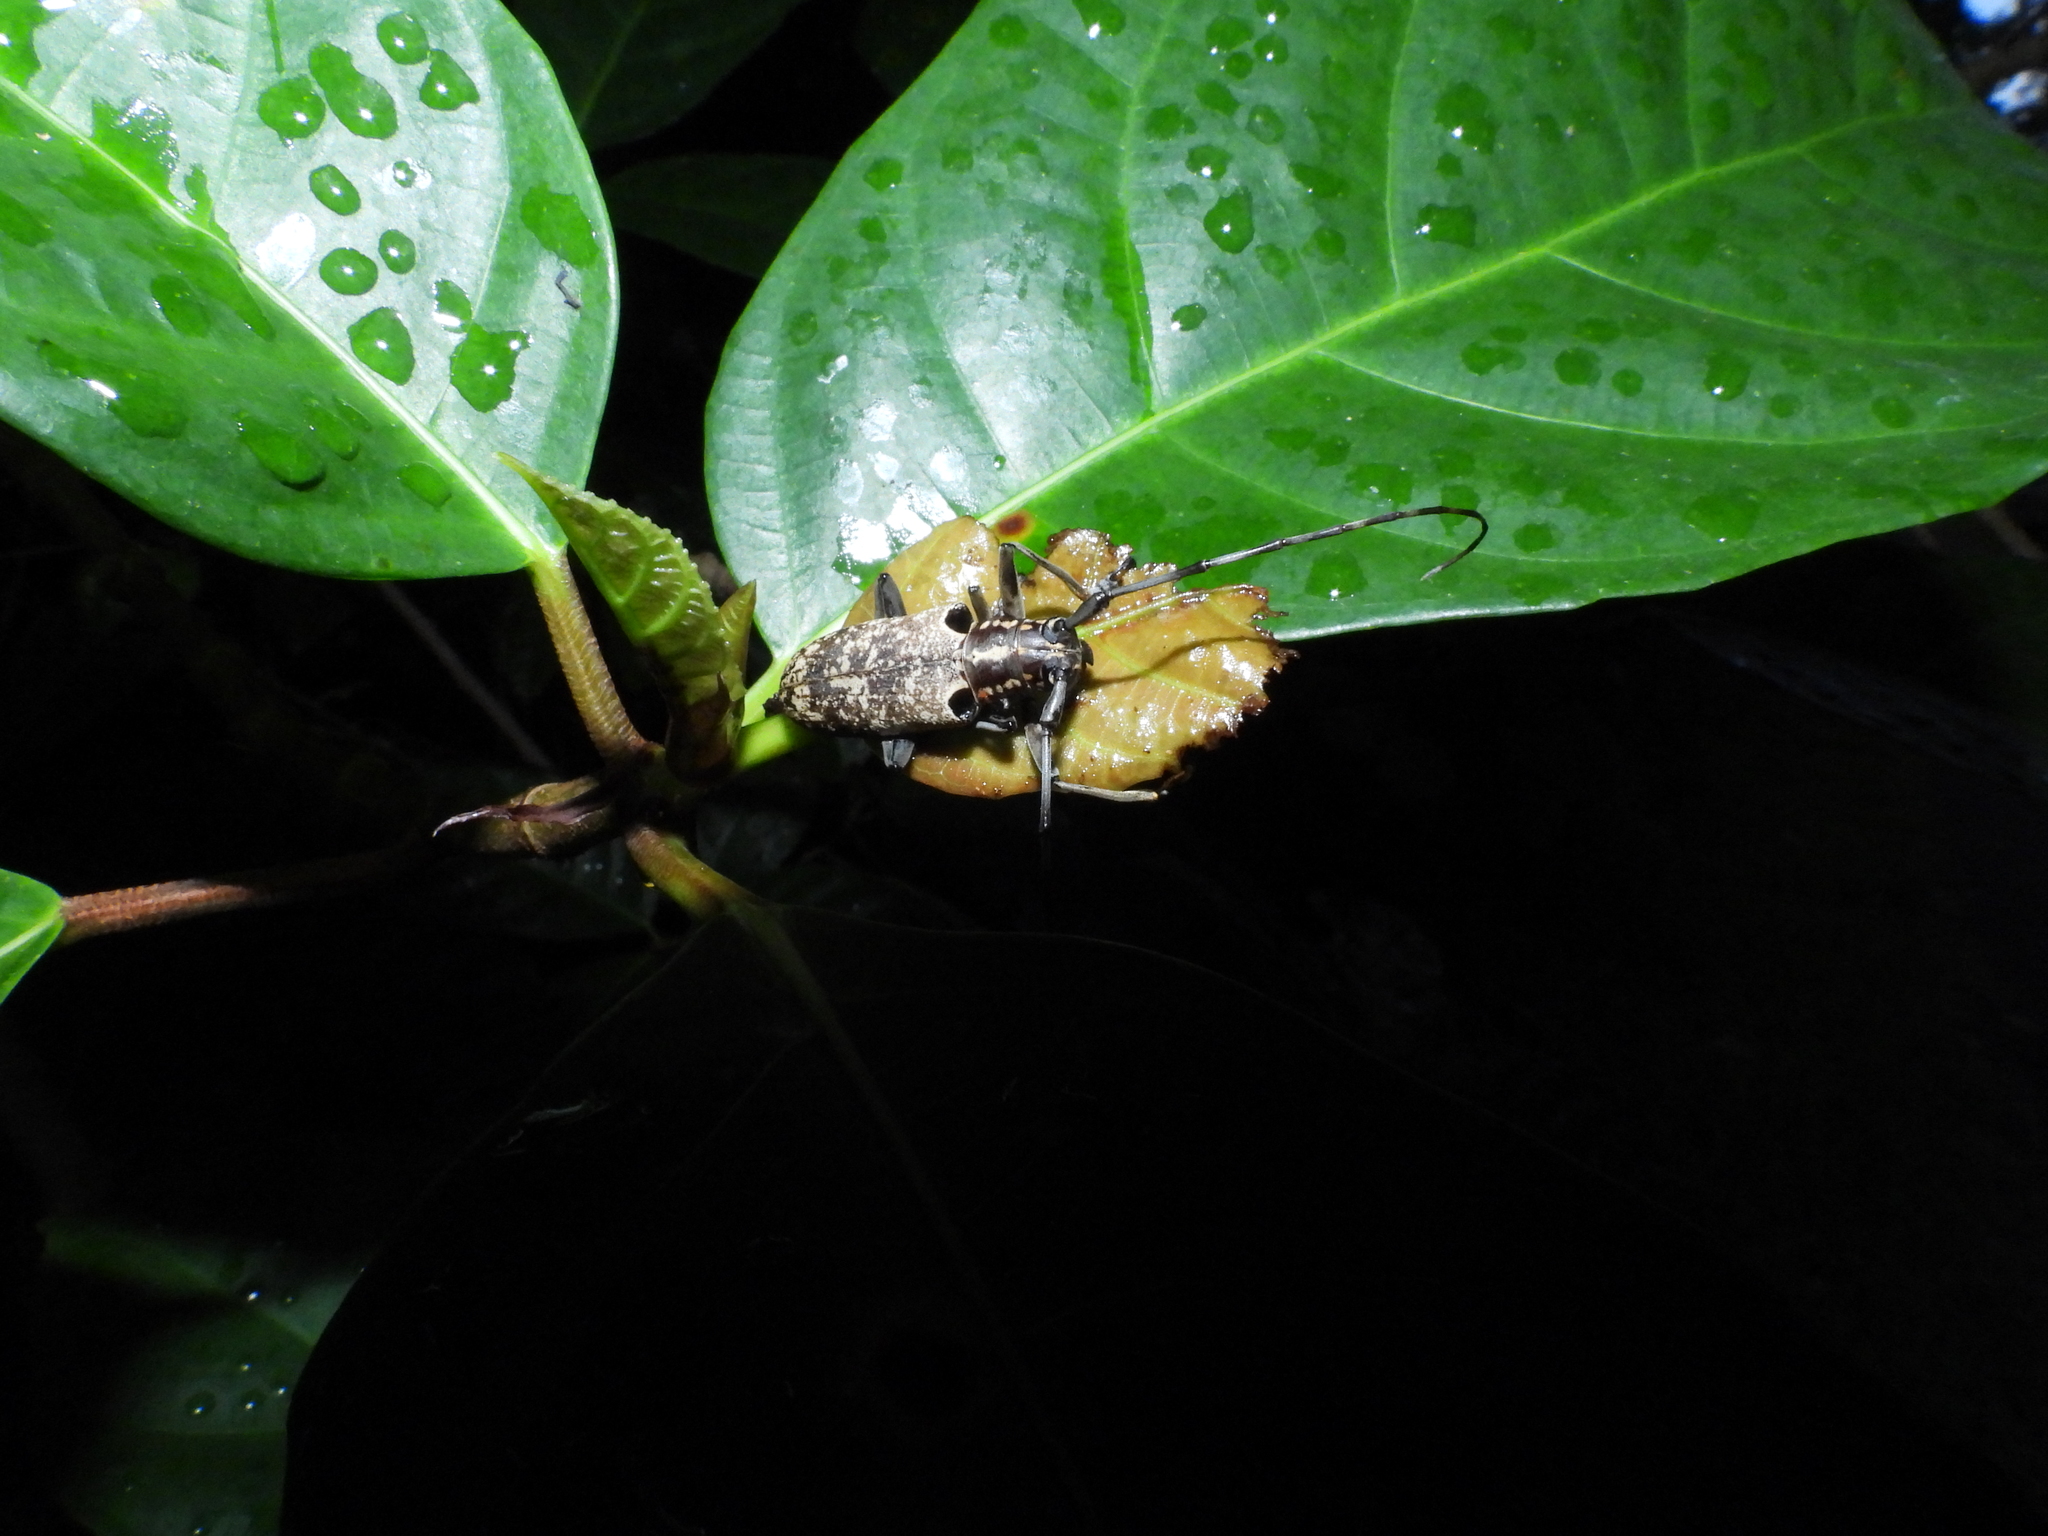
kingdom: Animalia
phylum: Arthropoda
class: Insecta
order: Coleoptera
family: Cerambycidae
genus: Epepeotes
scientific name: Epepeotes luscus
